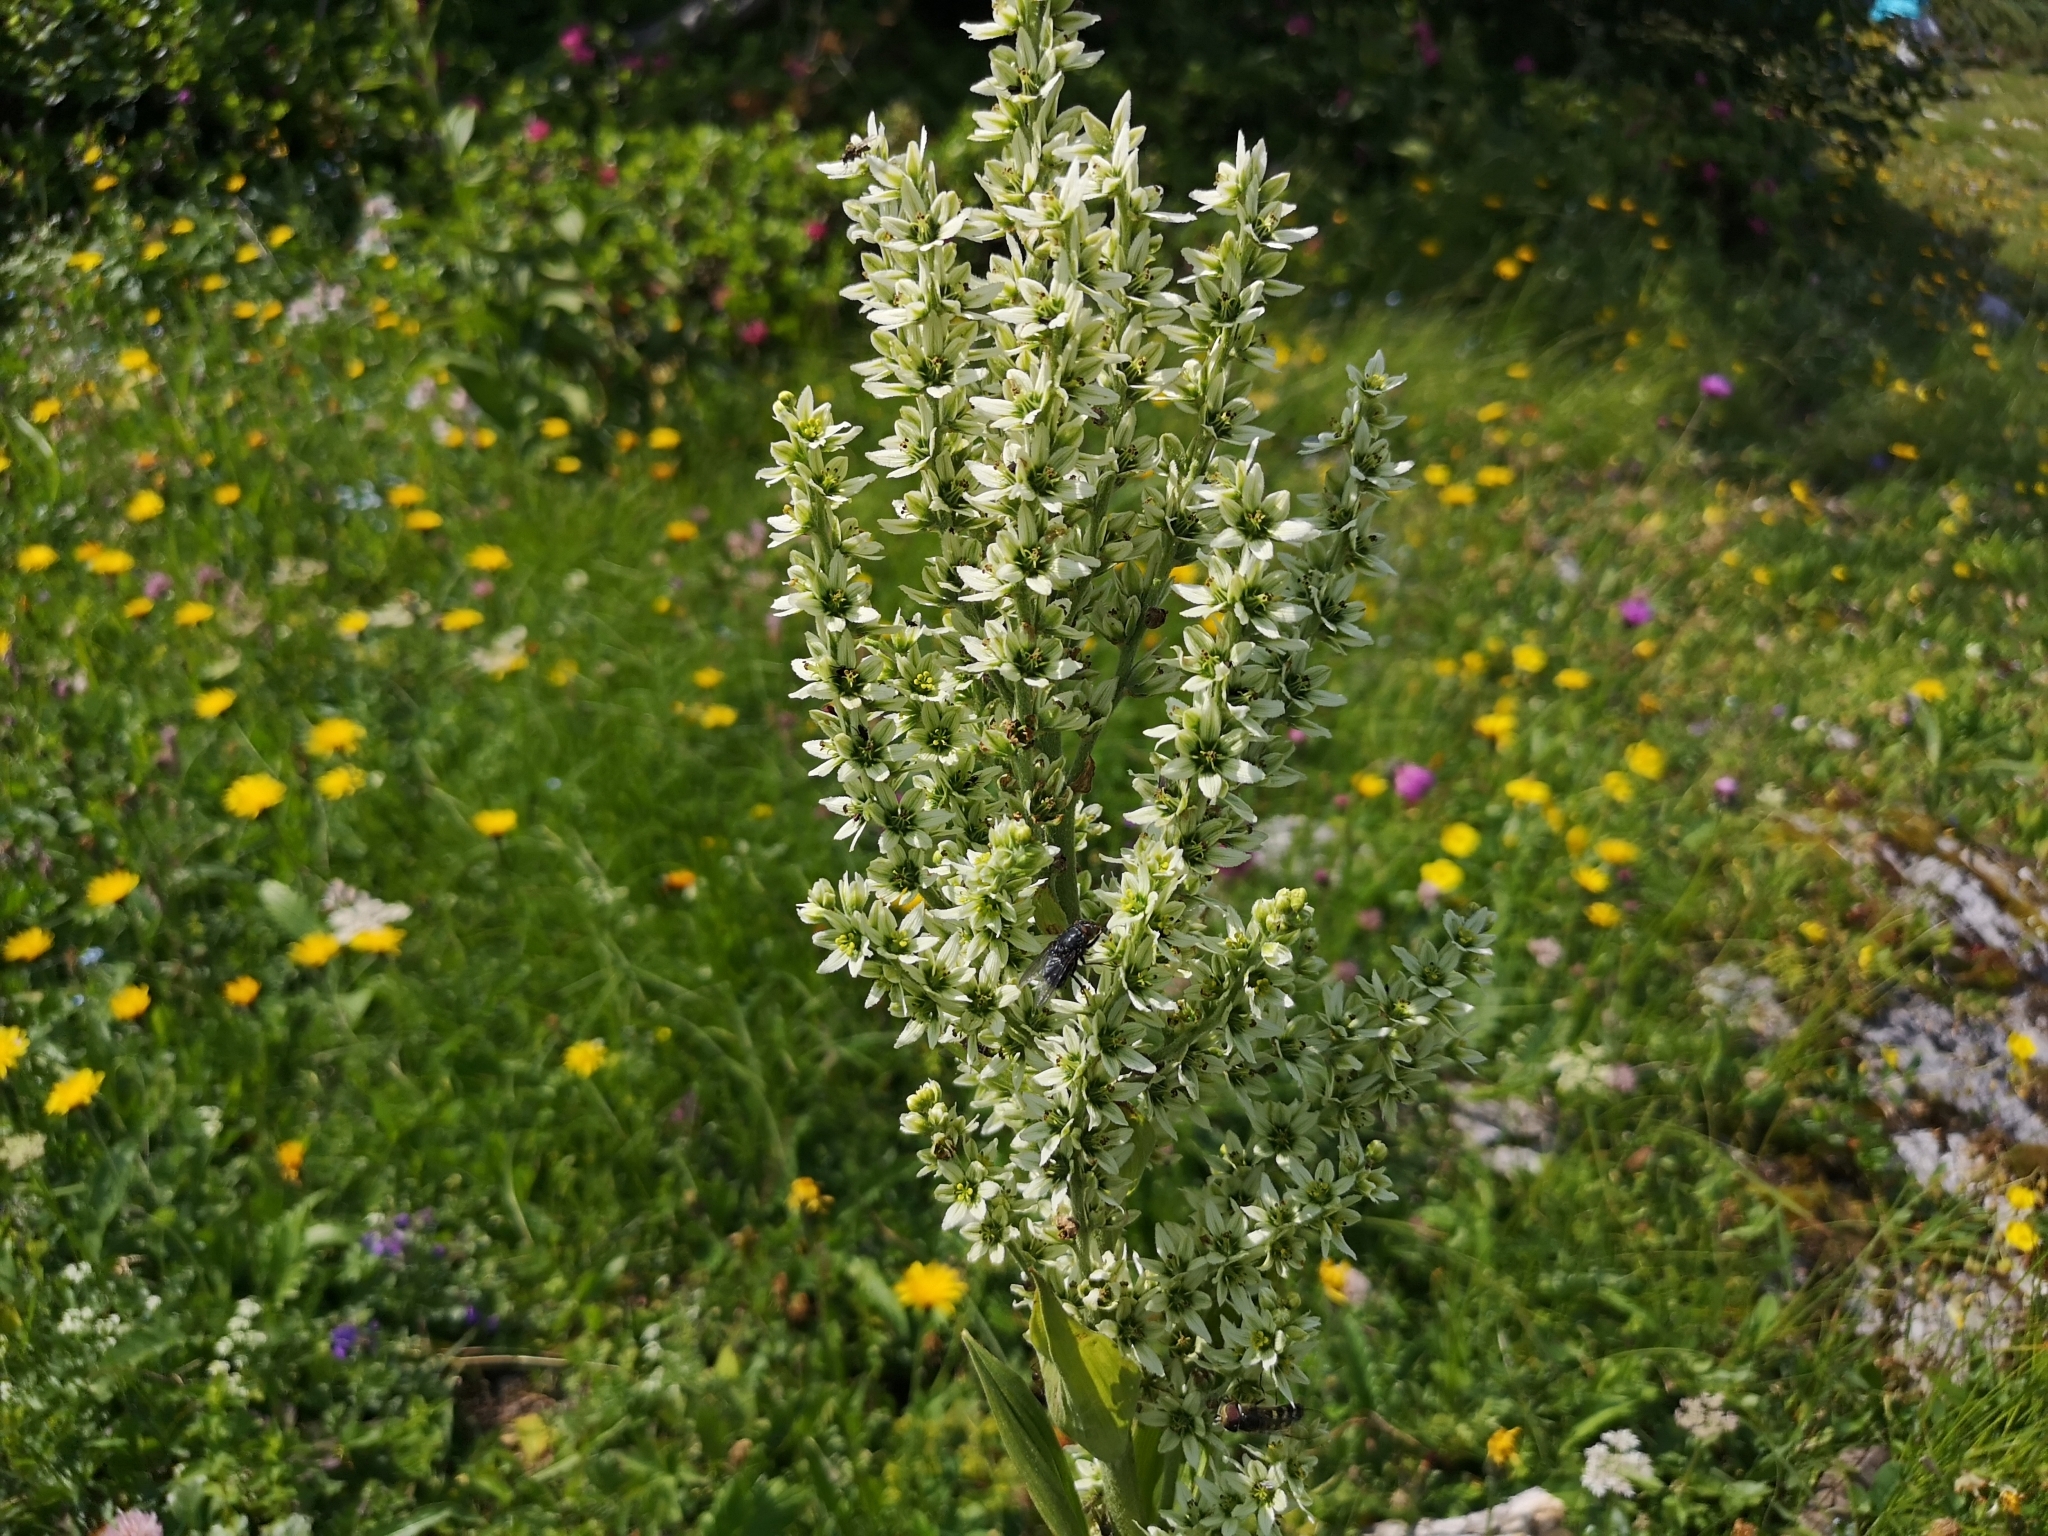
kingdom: Plantae
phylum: Tracheophyta
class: Liliopsida
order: Liliales
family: Melanthiaceae
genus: Veratrum
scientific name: Veratrum album
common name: White veratrum
